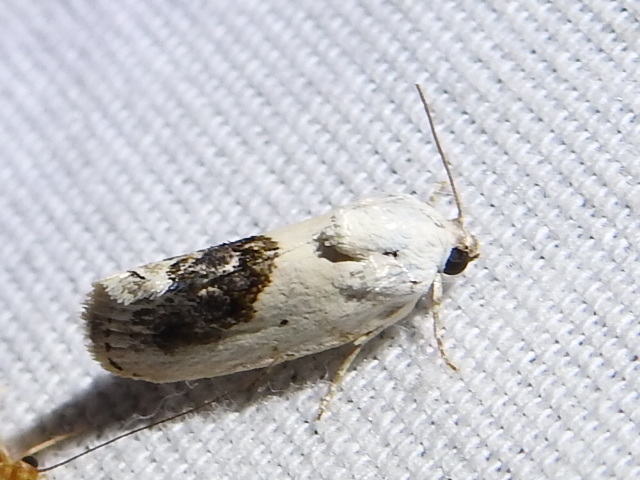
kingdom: Animalia
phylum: Arthropoda
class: Insecta
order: Lepidoptera
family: Noctuidae
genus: Acontia
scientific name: Acontia erastrioides
